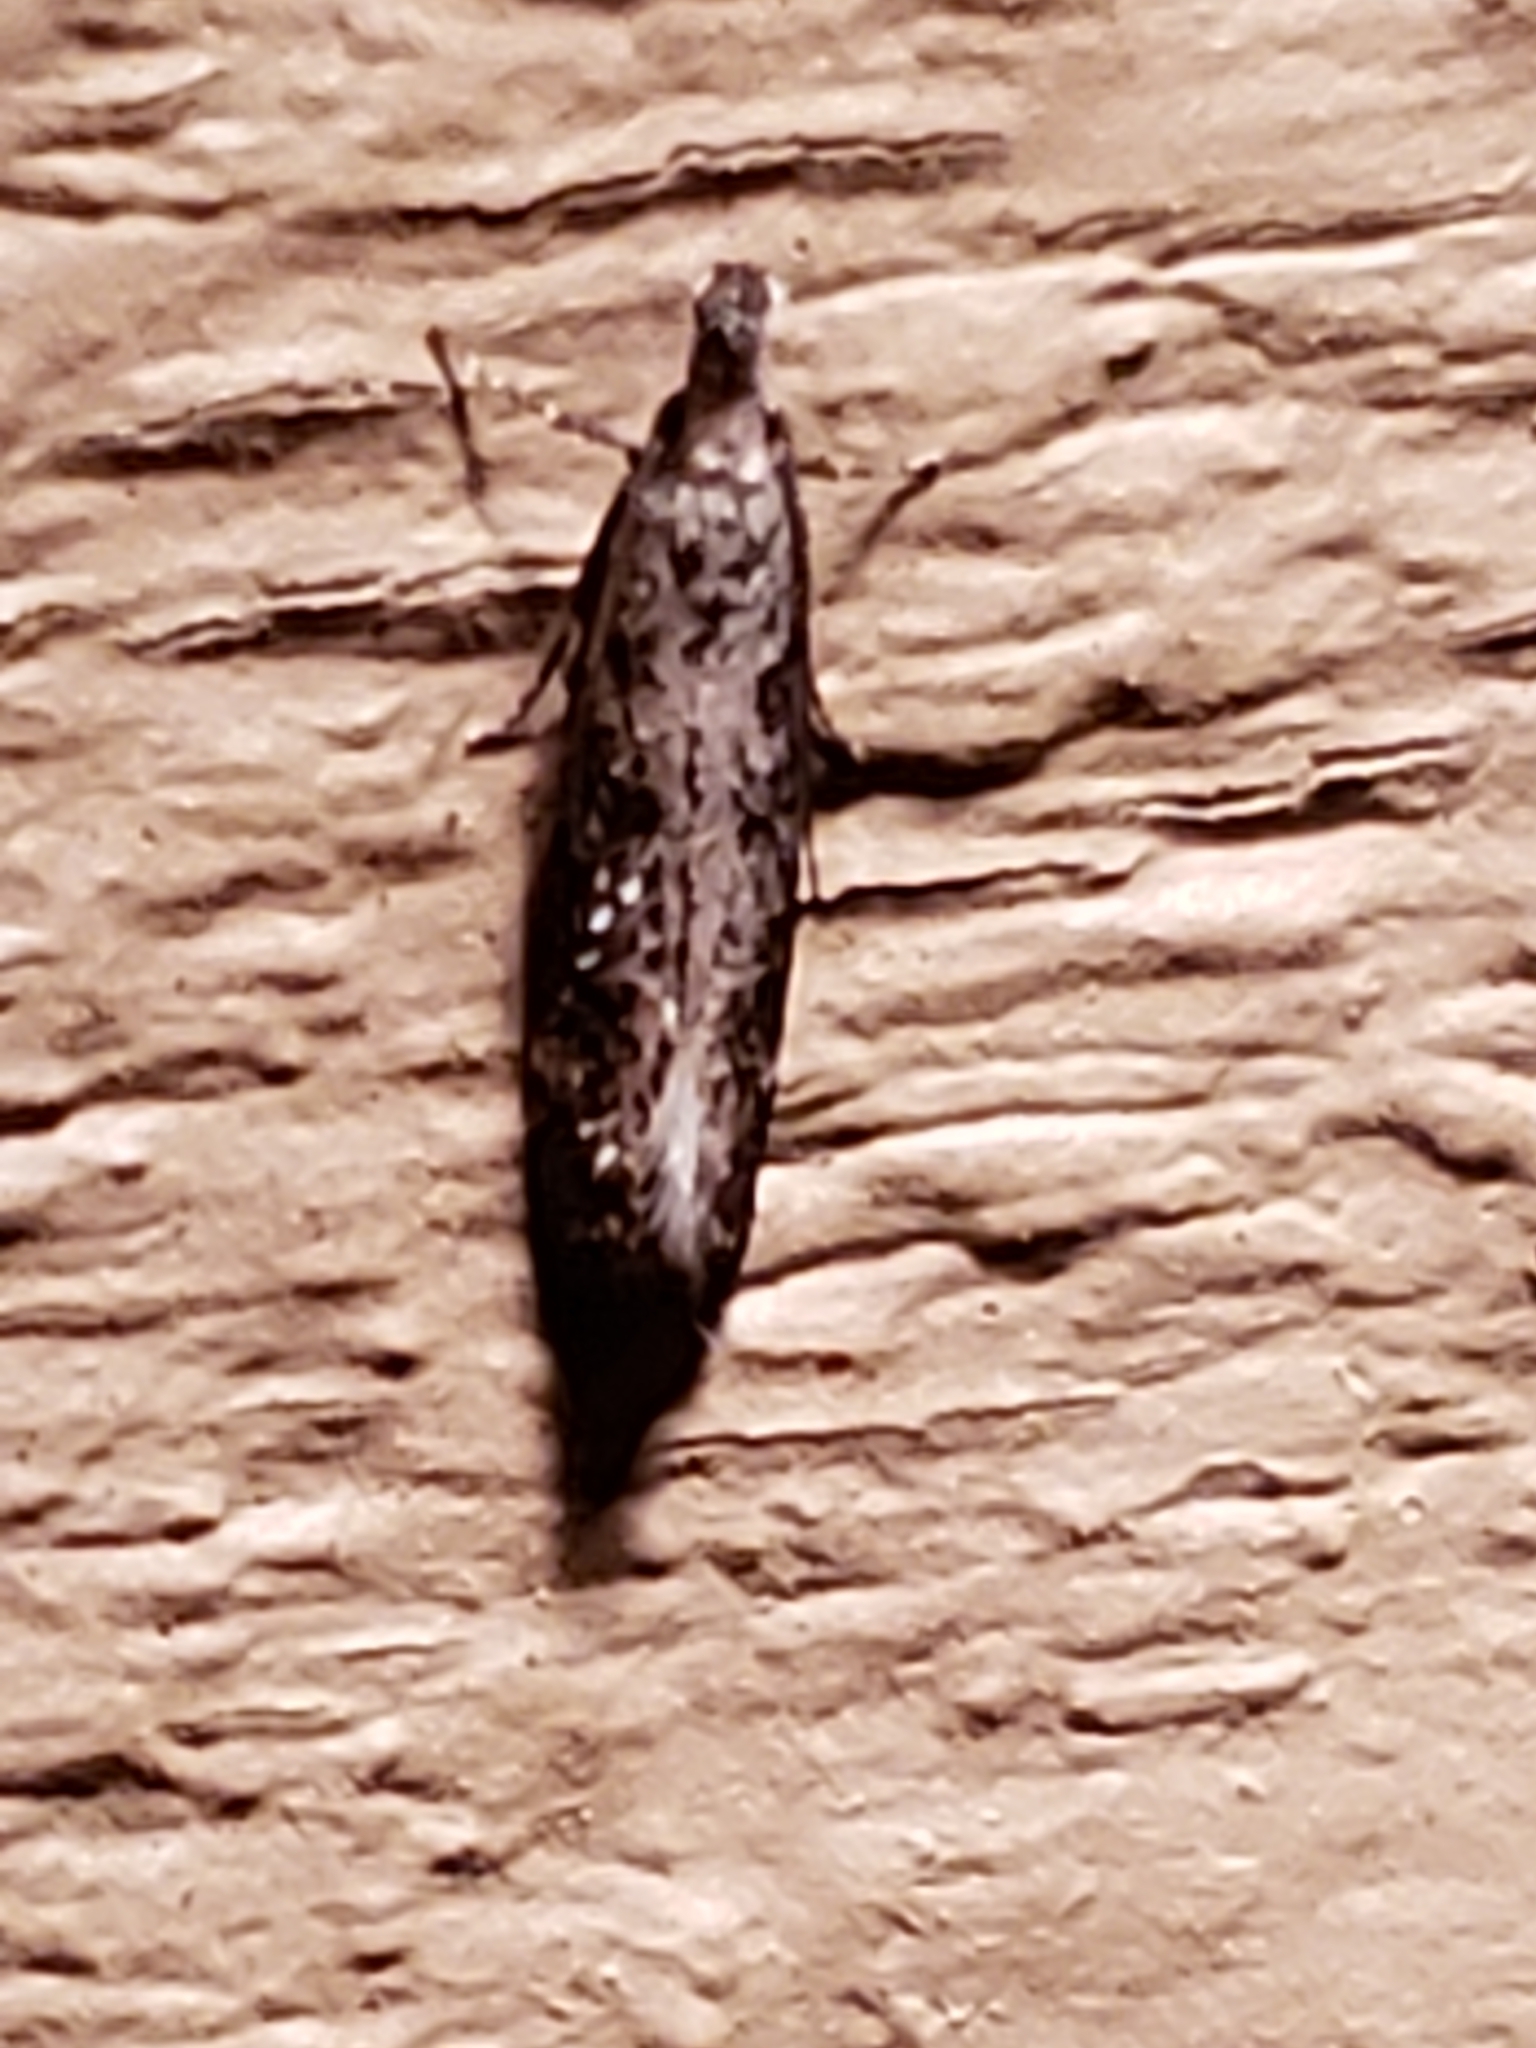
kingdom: Animalia
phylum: Arthropoda
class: Insecta
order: Lepidoptera
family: Gelechiidae
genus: Dichomeris
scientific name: Dichomeris inversella
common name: Inverse dichomeris moth
